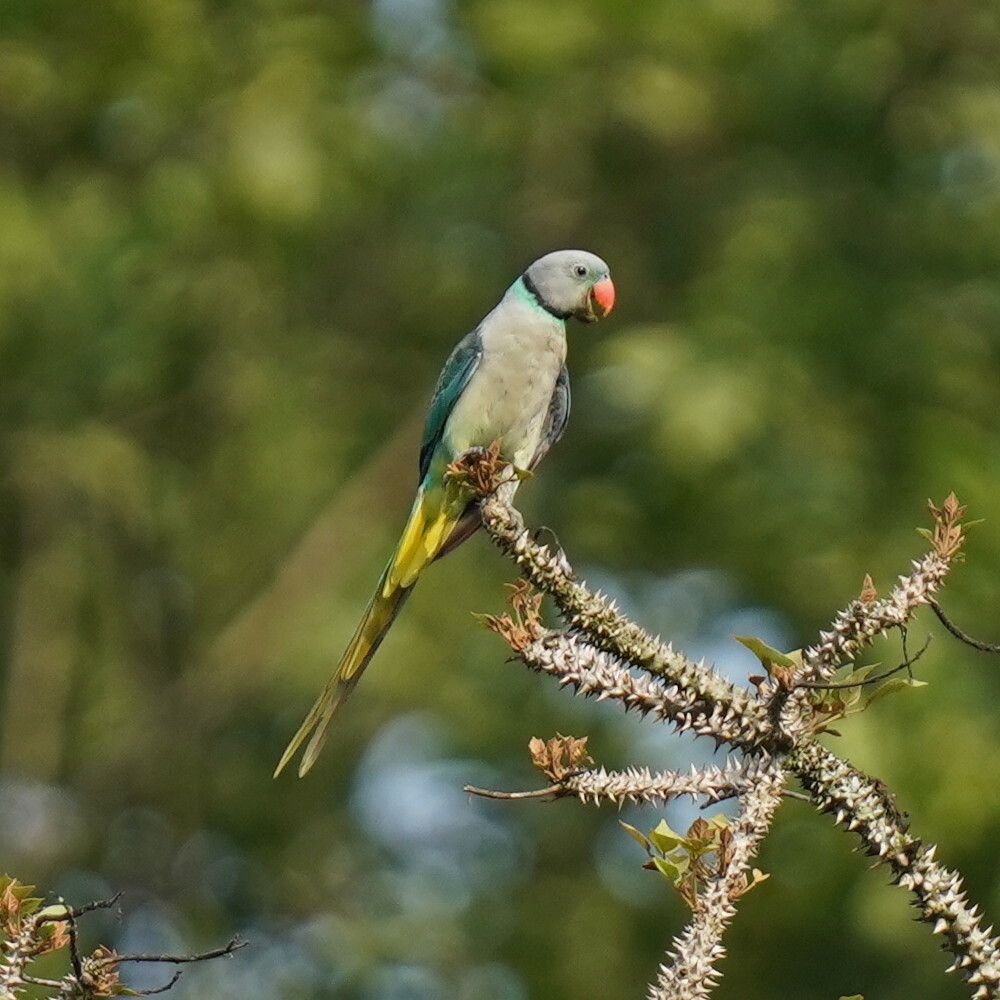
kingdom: Animalia
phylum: Chordata
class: Aves
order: Psittaciformes
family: Psittacidae
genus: Psittacula
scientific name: Psittacula columboides
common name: Blue-winged parakeet
